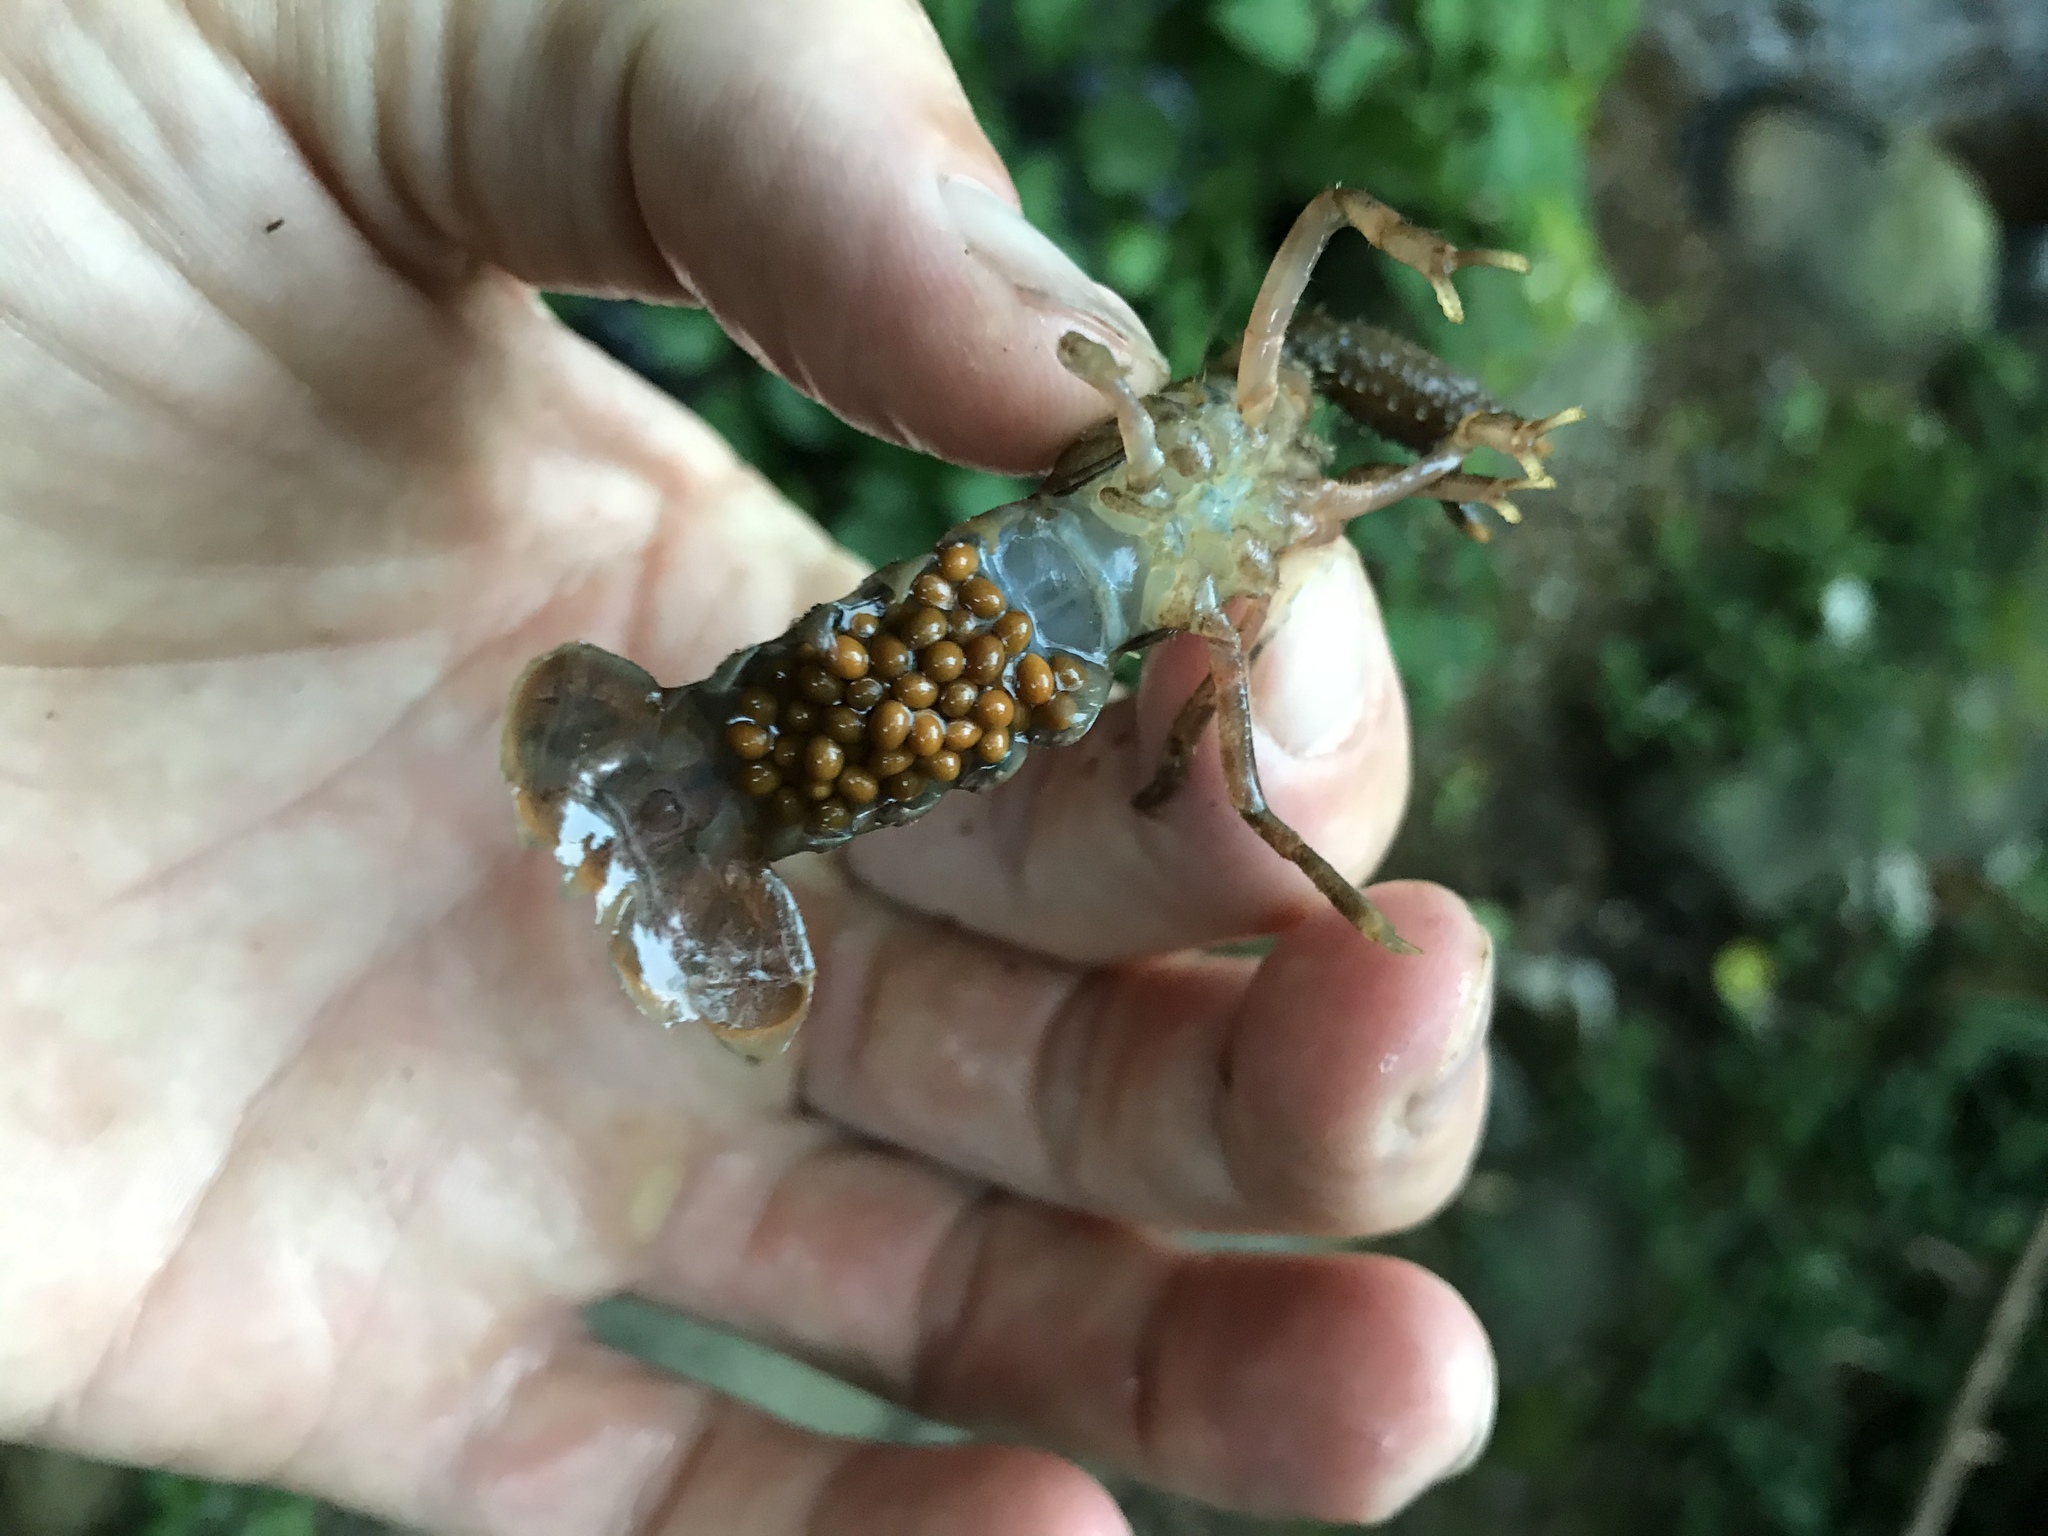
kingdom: Animalia
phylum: Arthropoda
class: Malacostraca
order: Decapoda
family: Parastacidae
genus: Paranephrops
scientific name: Paranephrops planifrons
